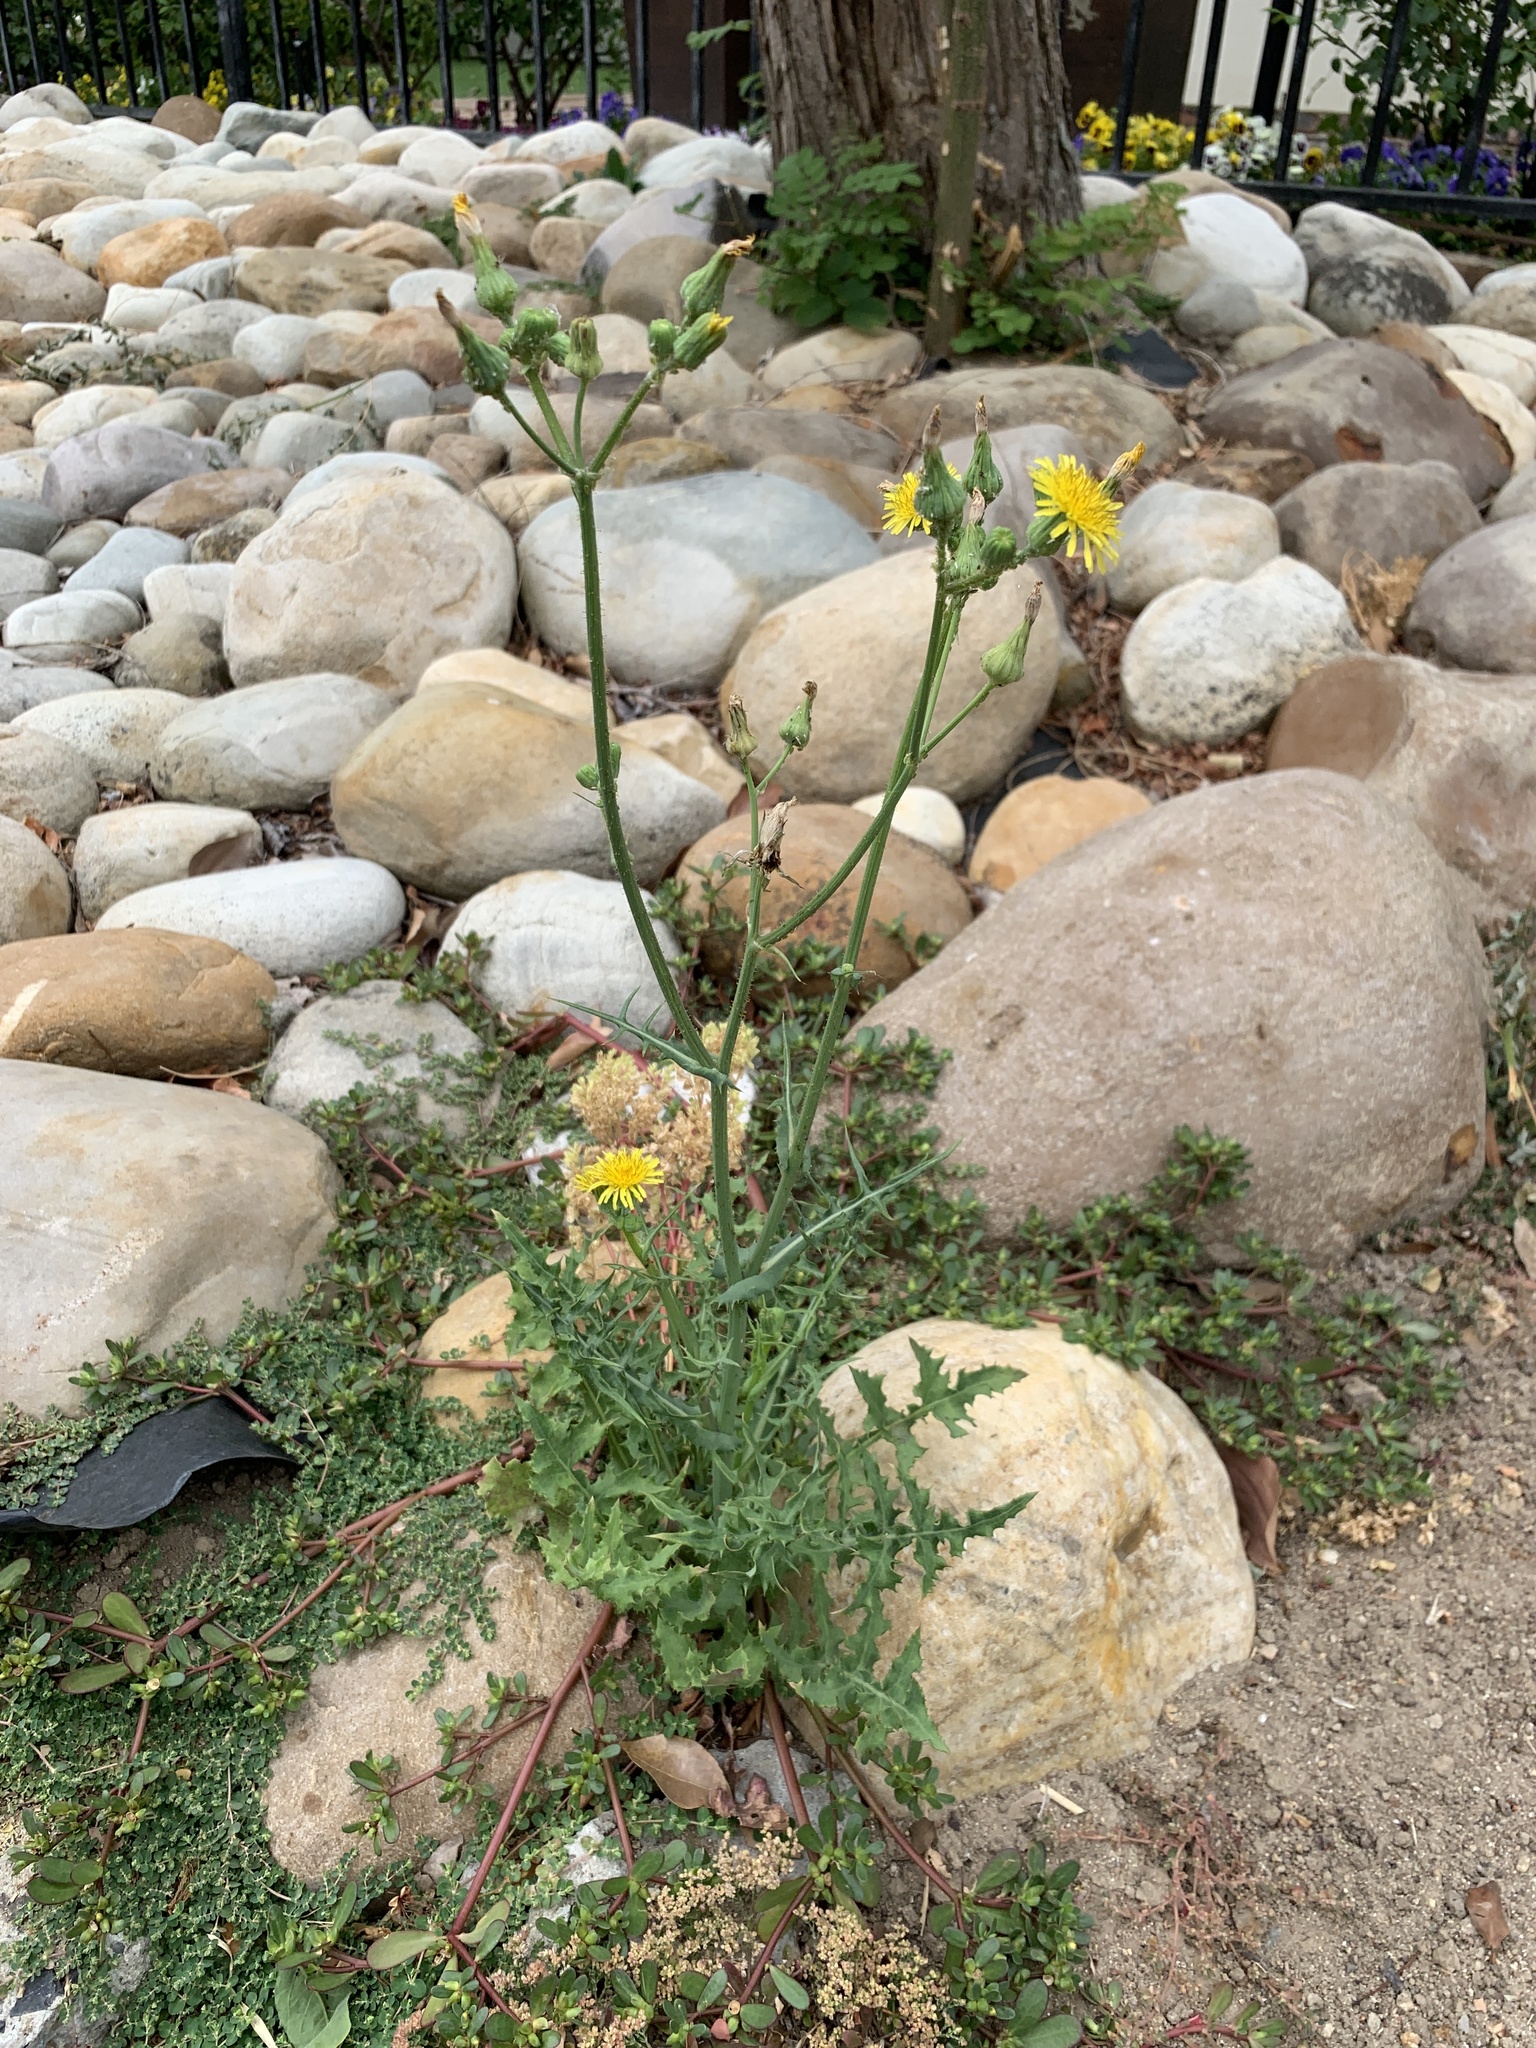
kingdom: Plantae
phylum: Tracheophyta
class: Magnoliopsida
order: Asterales
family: Asteraceae
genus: Sonchus
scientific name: Sonchus oleraceus
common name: Common sowthistle
